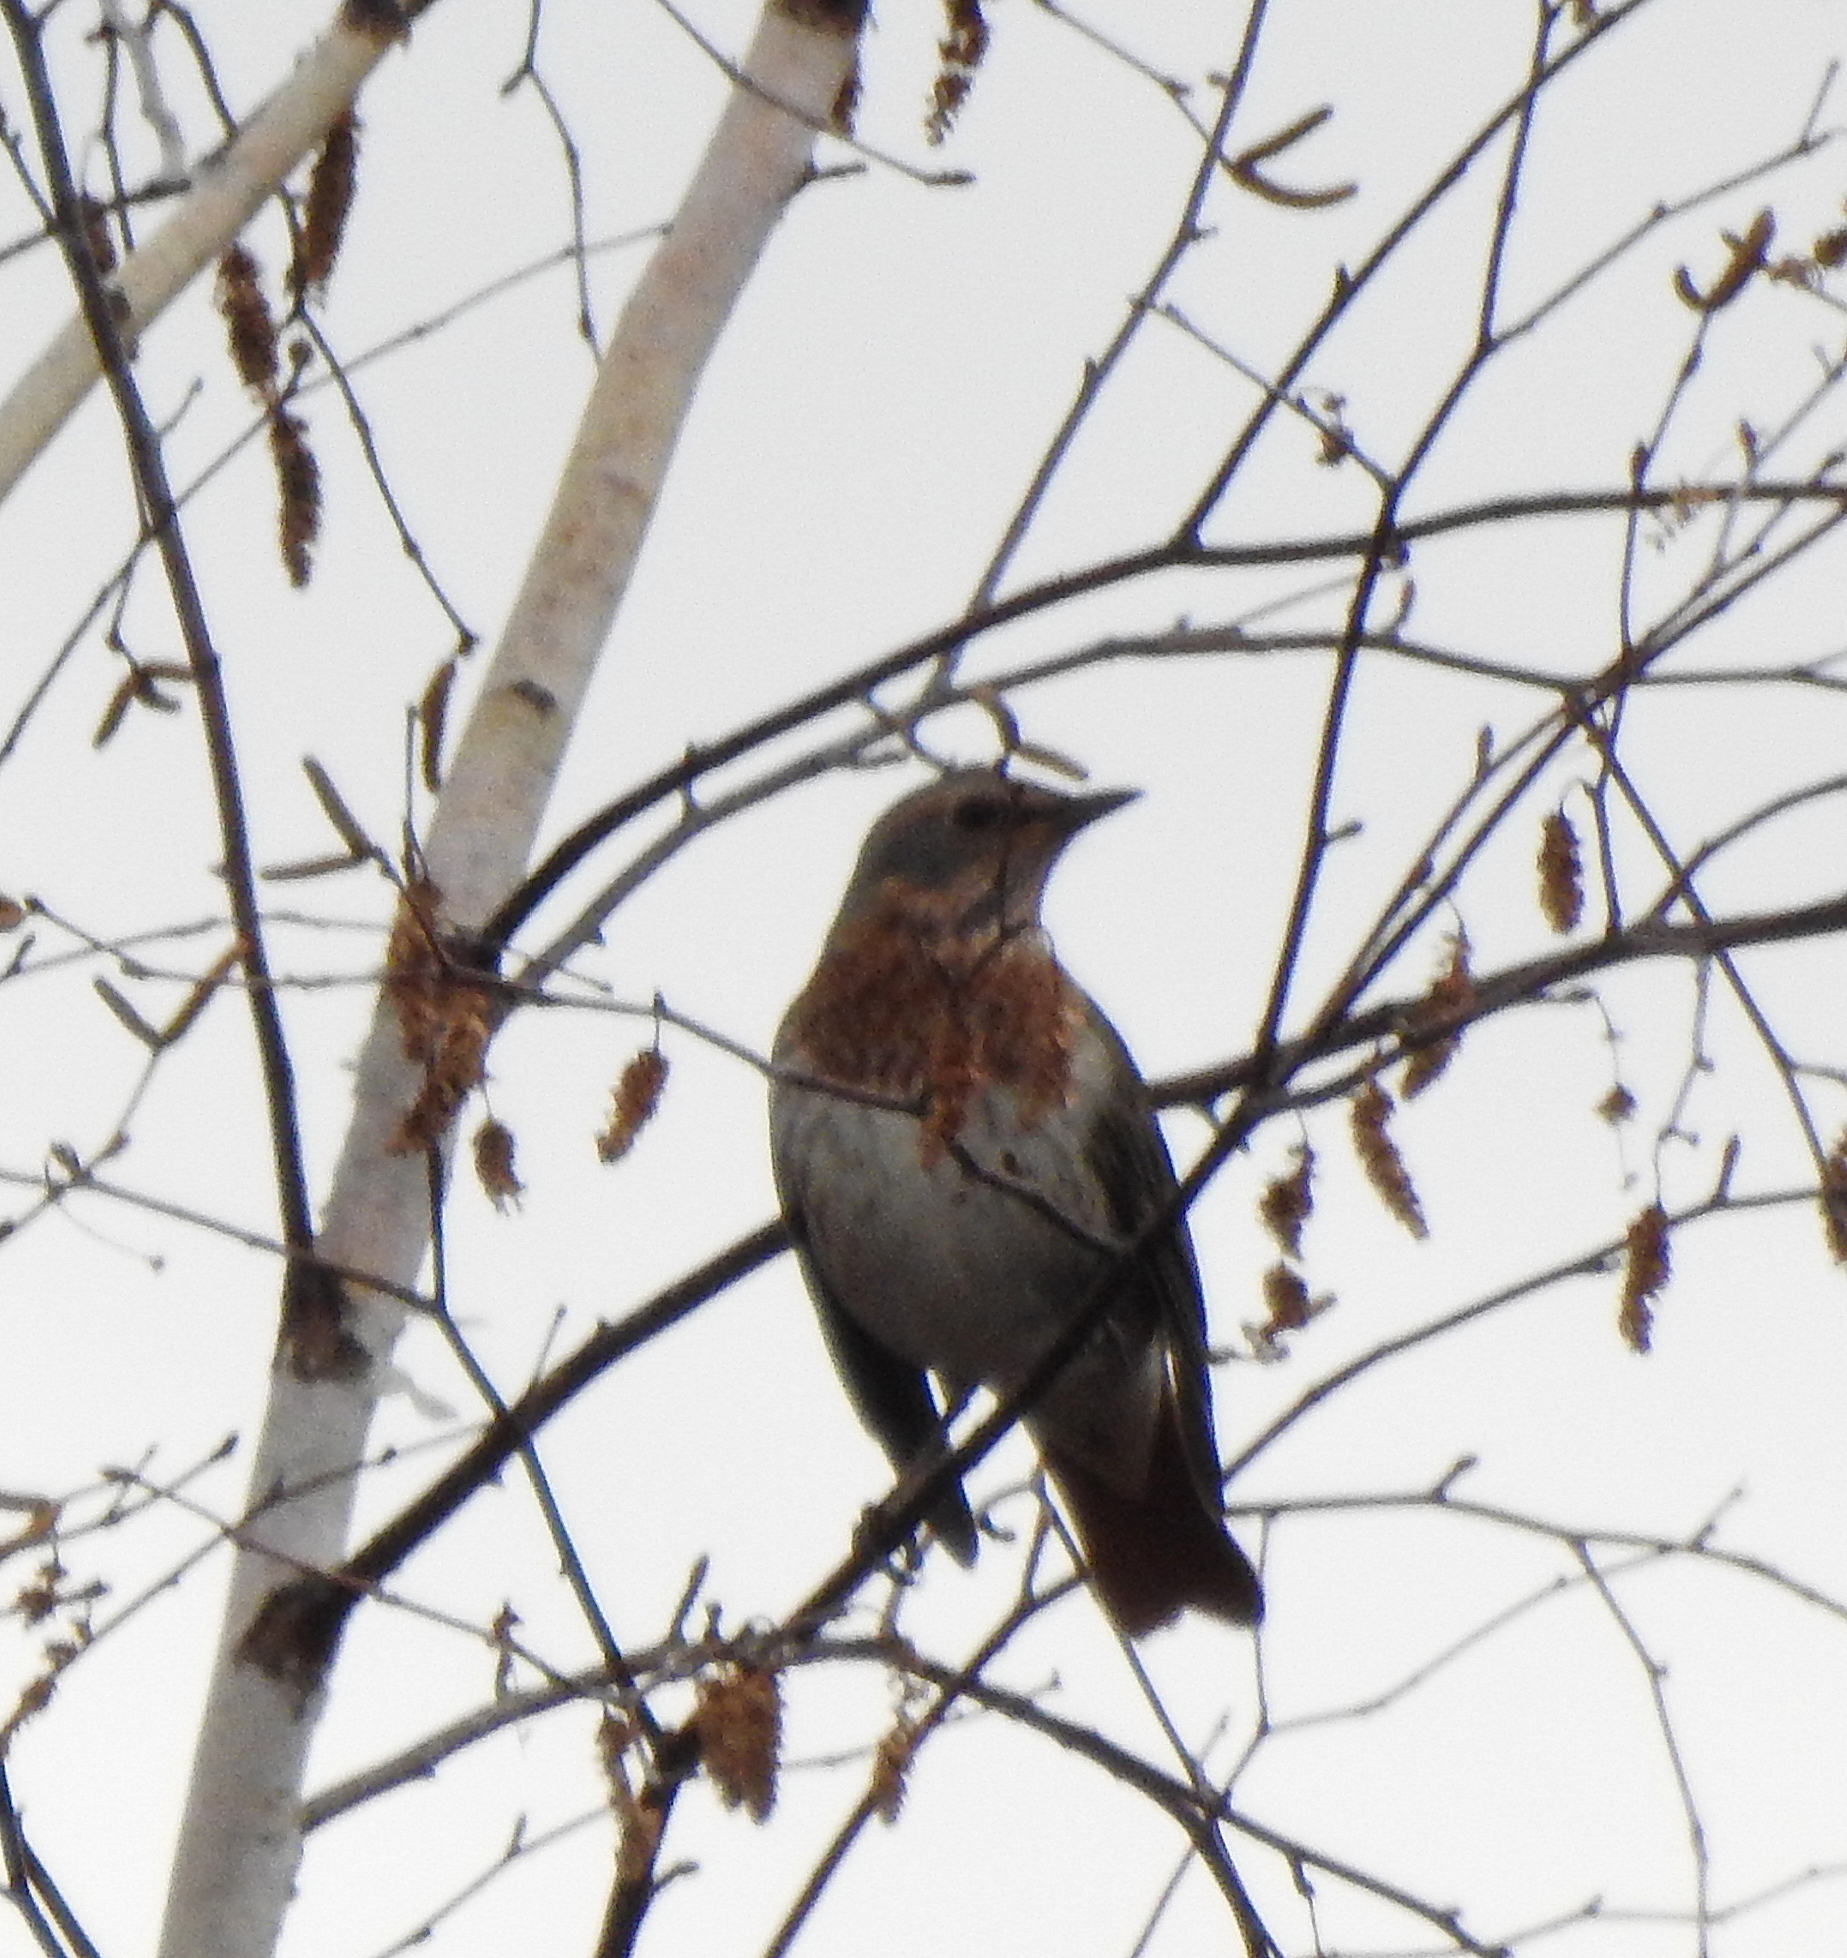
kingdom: Animalia
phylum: Chordata
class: Aves
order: Passeriformes
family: Turdidae
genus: Turdus
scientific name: Turdus ruficollis
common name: Red-throated thrush
